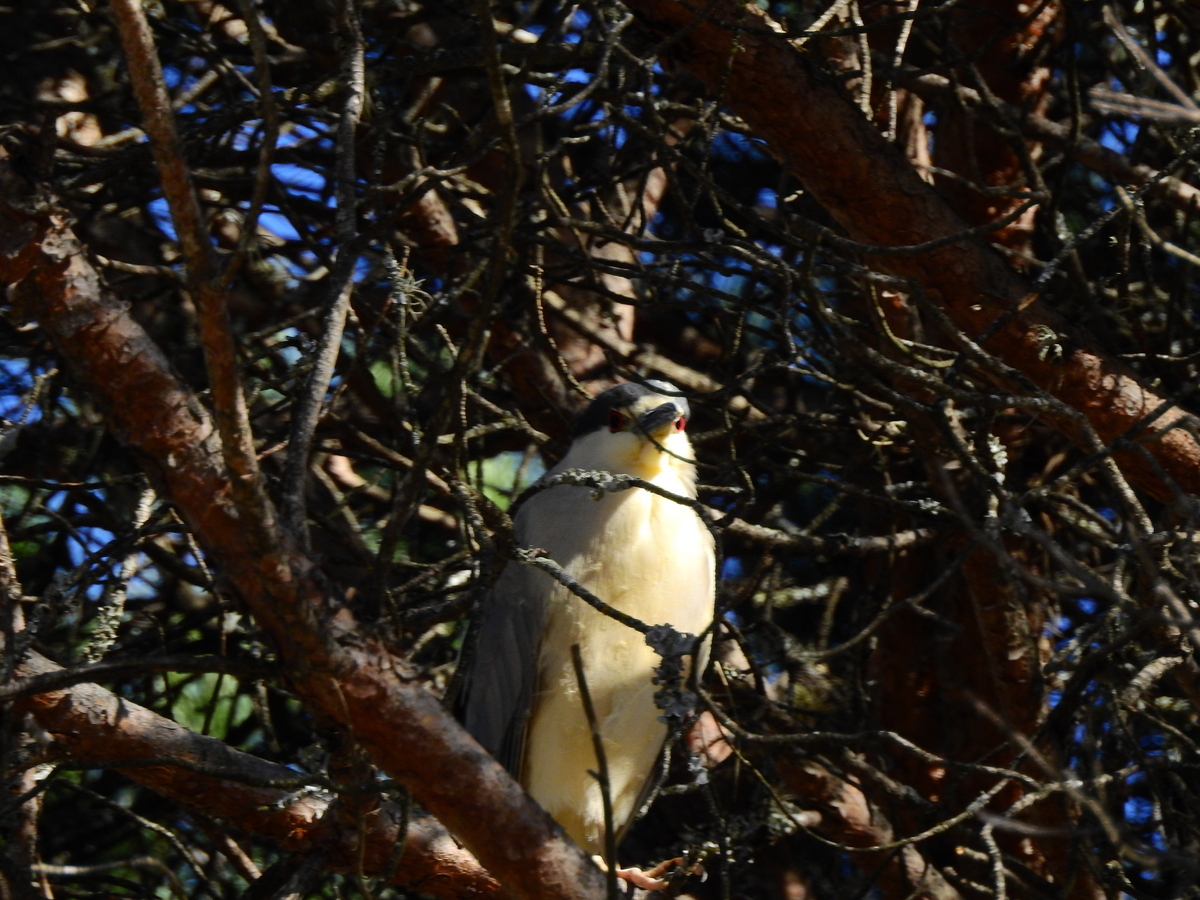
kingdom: Animalia
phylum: Chordata
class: Aves
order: Pelecaniformes
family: Ardeidae
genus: Nycticorax
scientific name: Nycticorax nycticorax
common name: Black-crowned night heron
